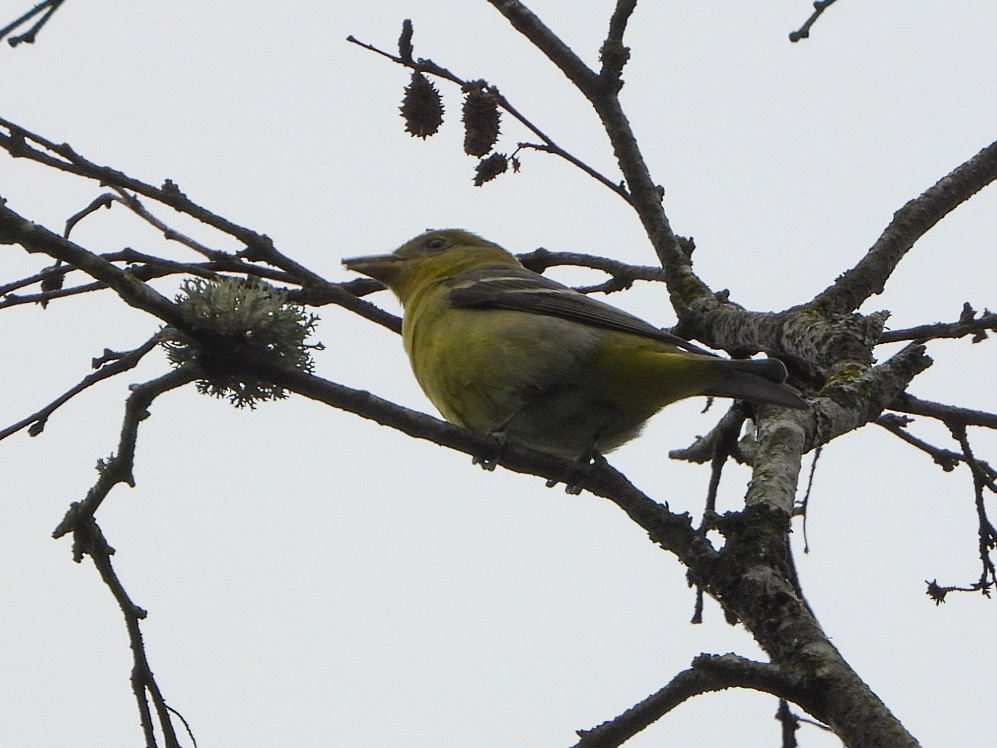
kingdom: Animalia
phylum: Chordata
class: Aves
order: Passeriformes
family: Cardinalidae
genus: Piranga
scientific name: Piranga ludoviciana
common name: Western tanager
